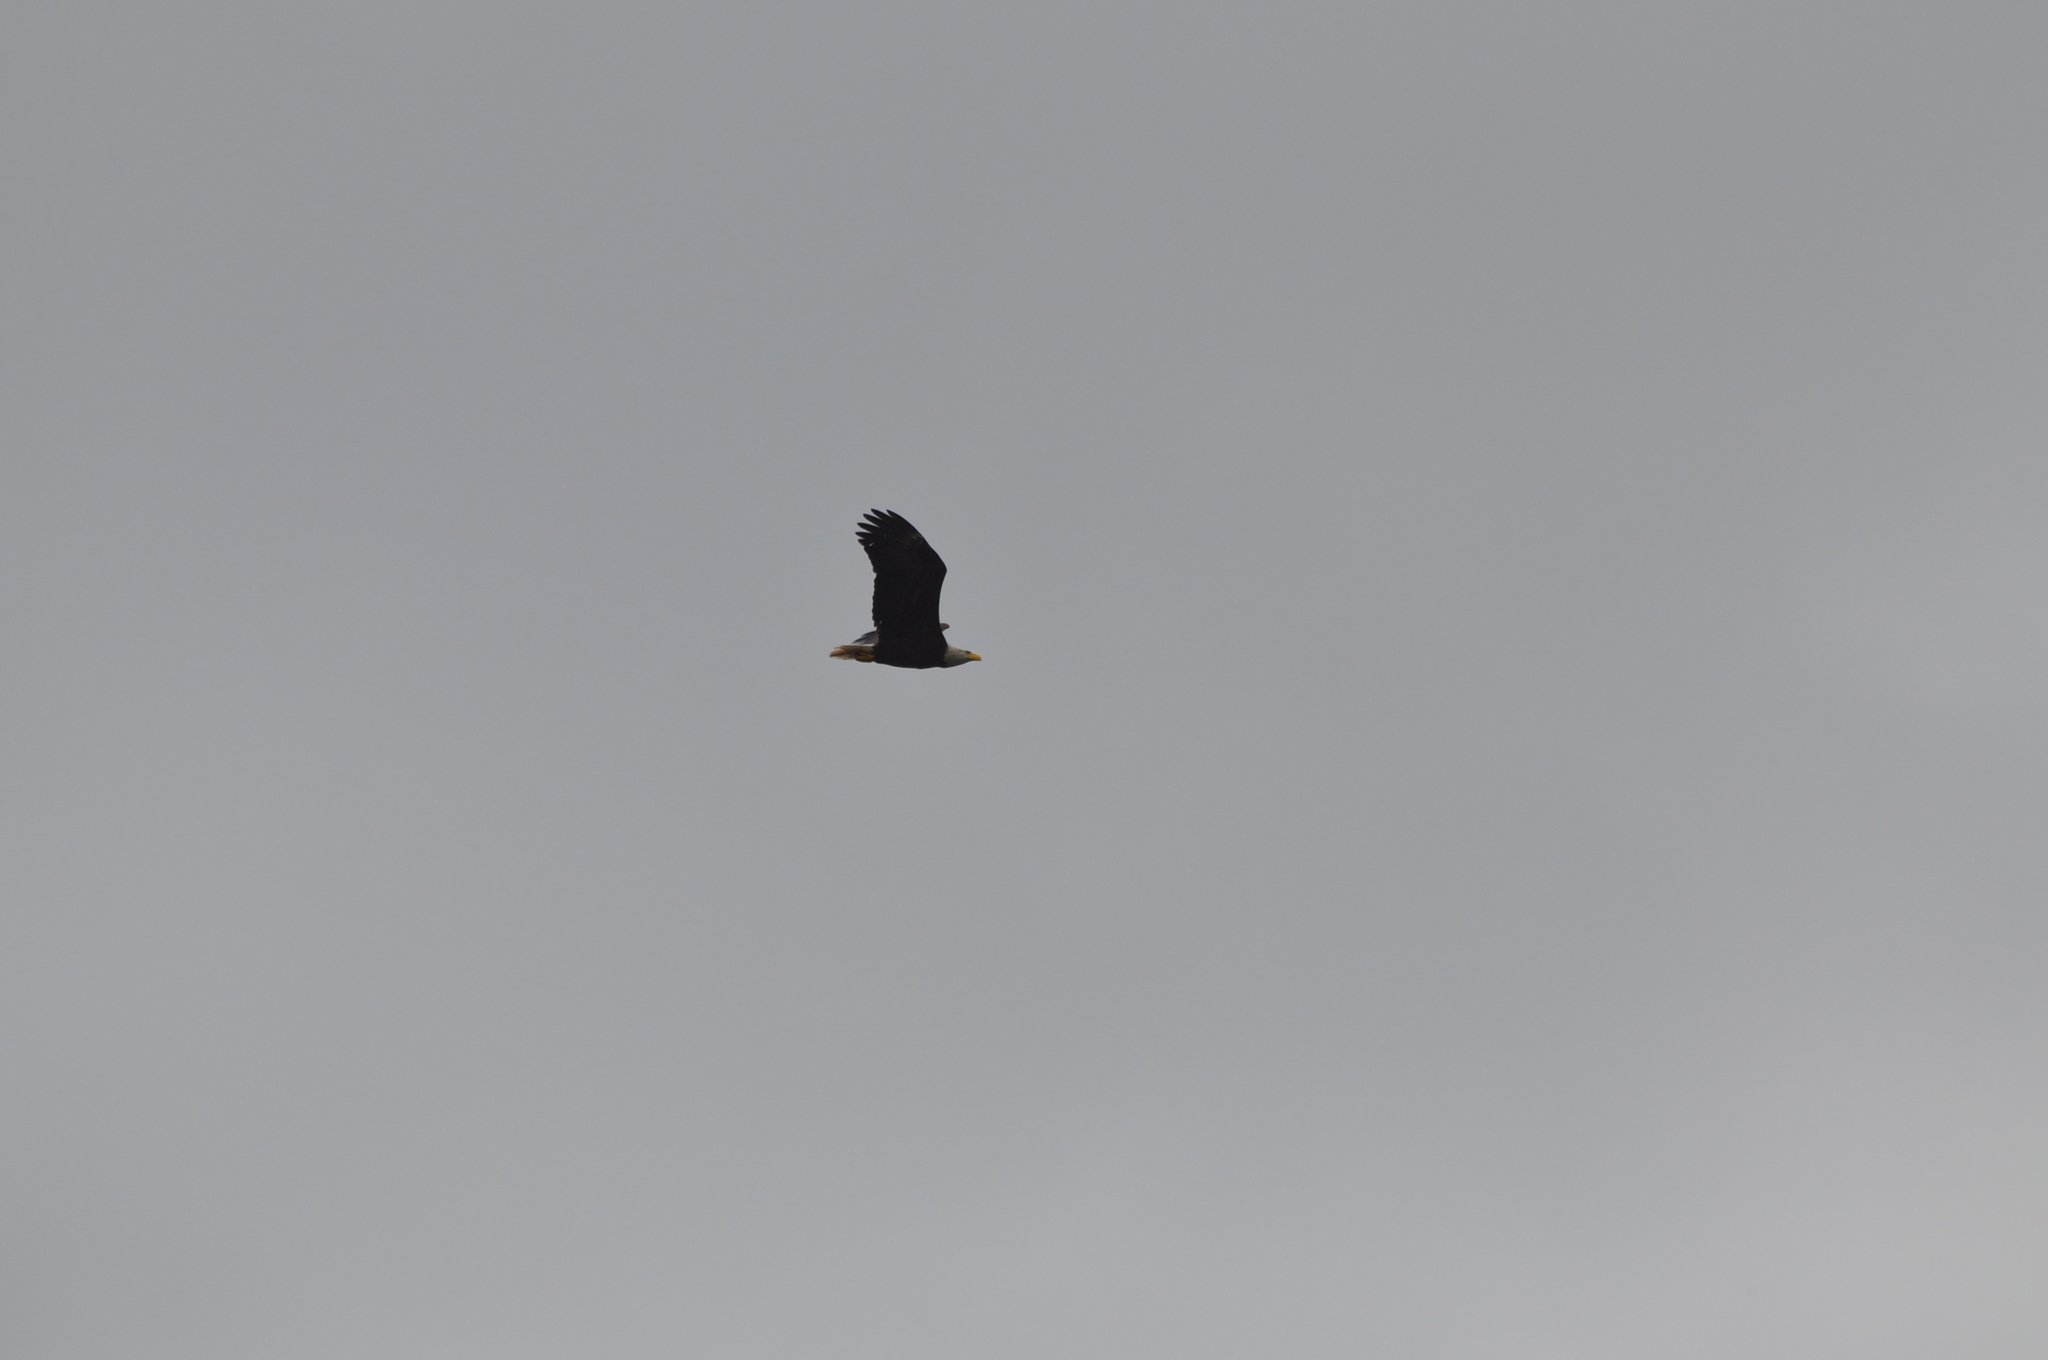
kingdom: Animalia
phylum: Chordata
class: Aves
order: Accipitriformes
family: Accipitridae
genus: Haliaeetus
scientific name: Haliaeetus leucocephalus
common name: Bald eagle
